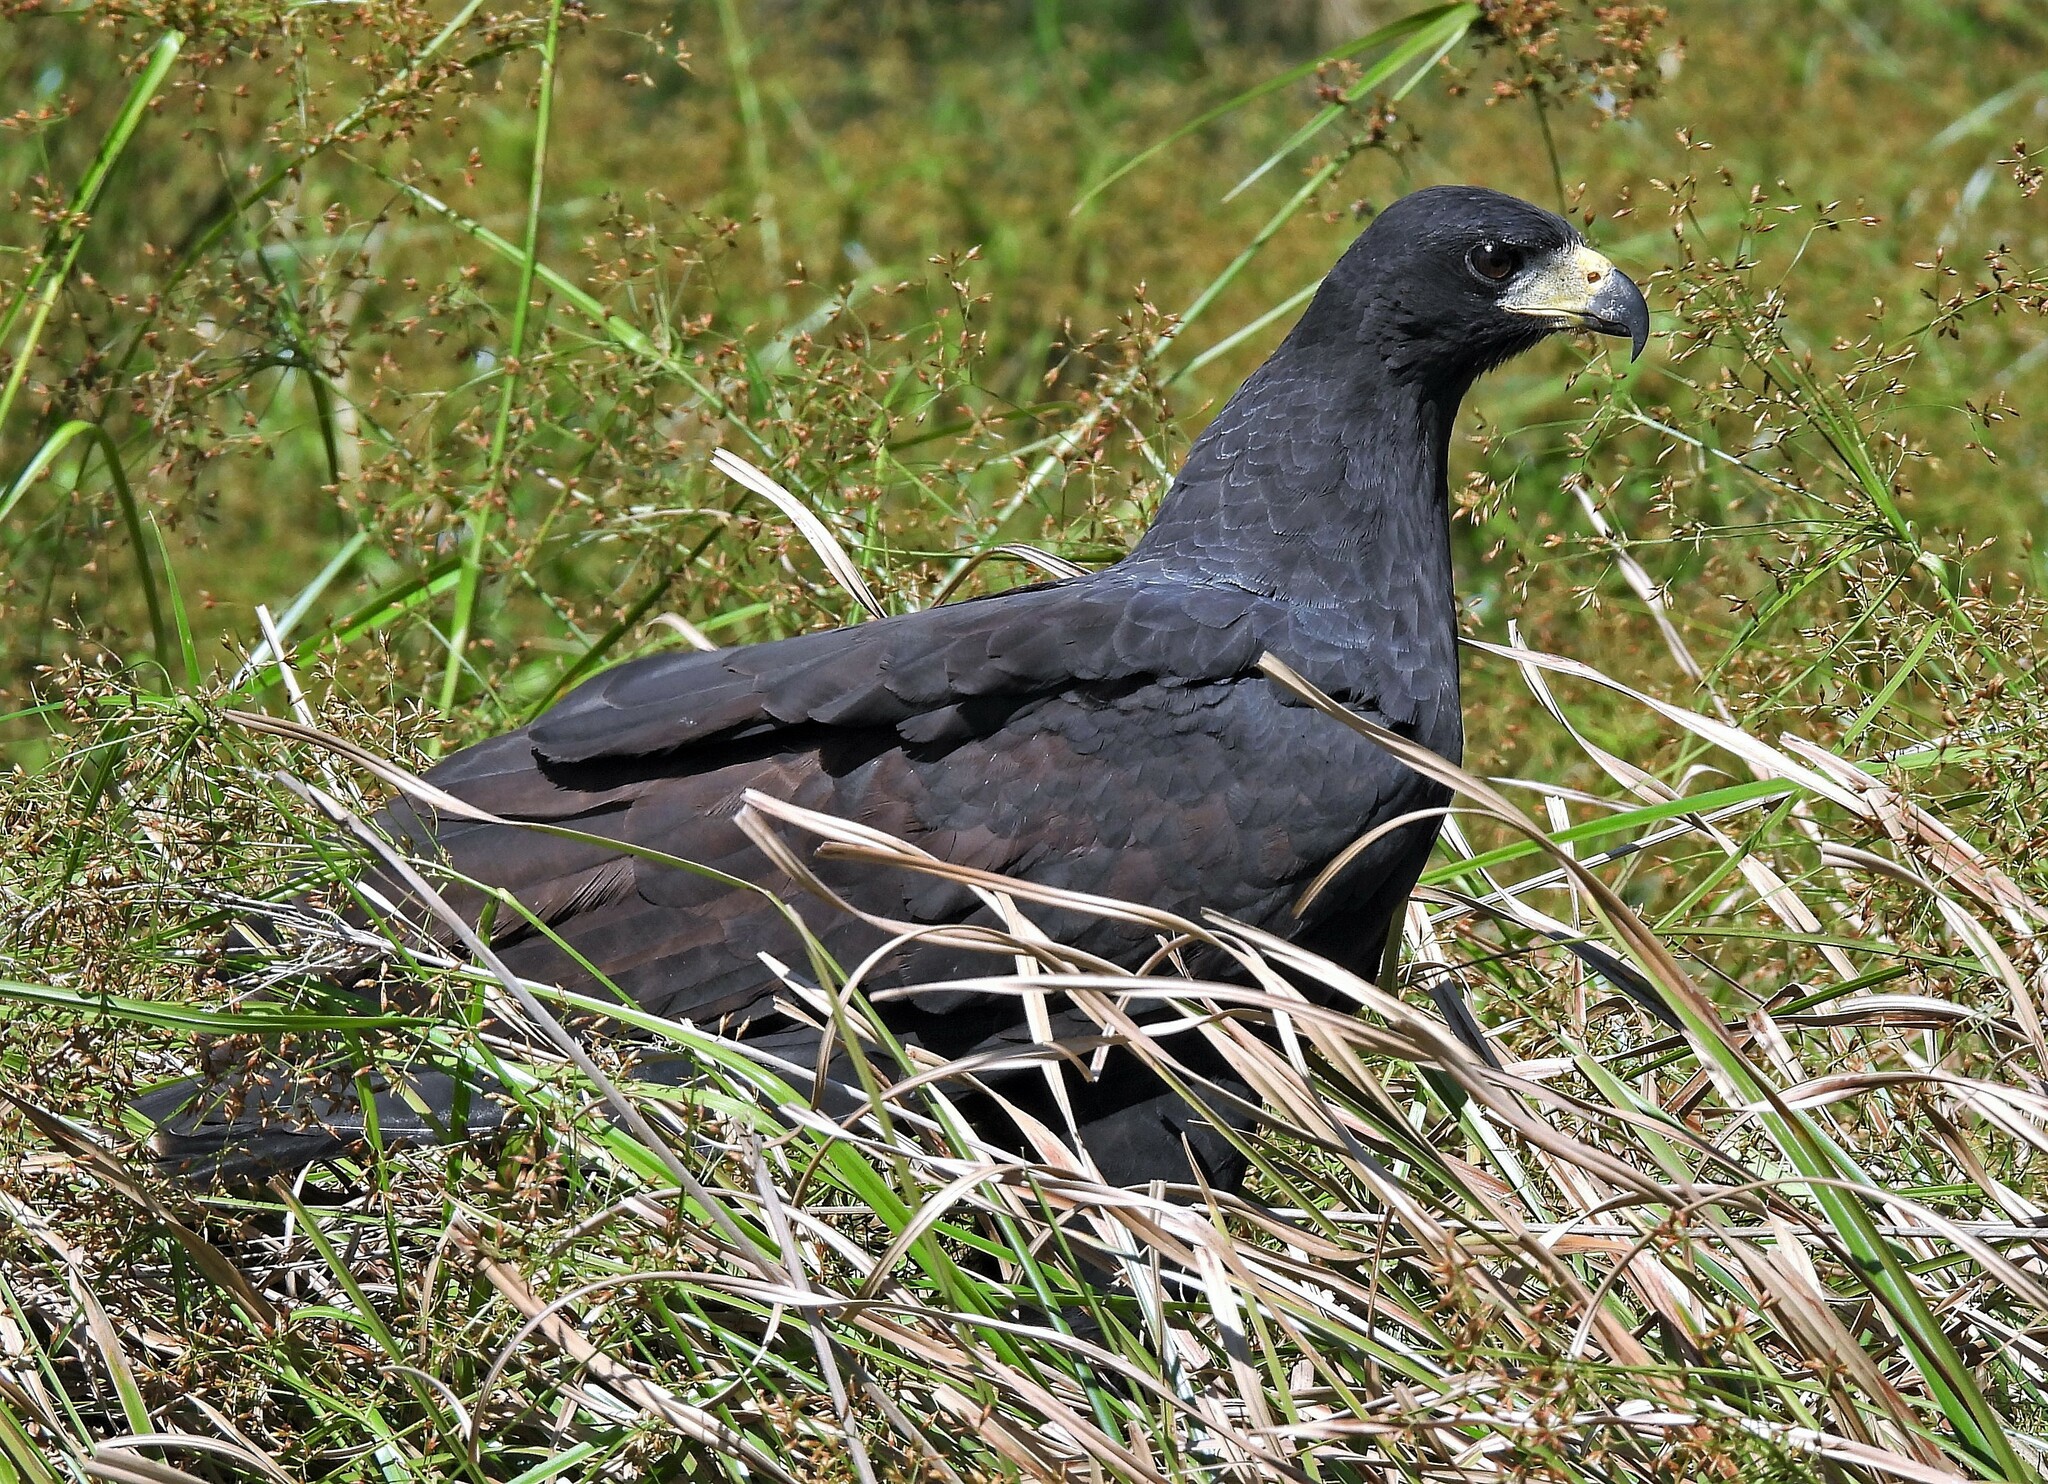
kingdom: Animalia
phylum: Chordata
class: Aves
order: Accipitriformes
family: Accipitridae
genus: Buteogallus
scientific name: Buteogallus urubitinga
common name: Great black hawk
